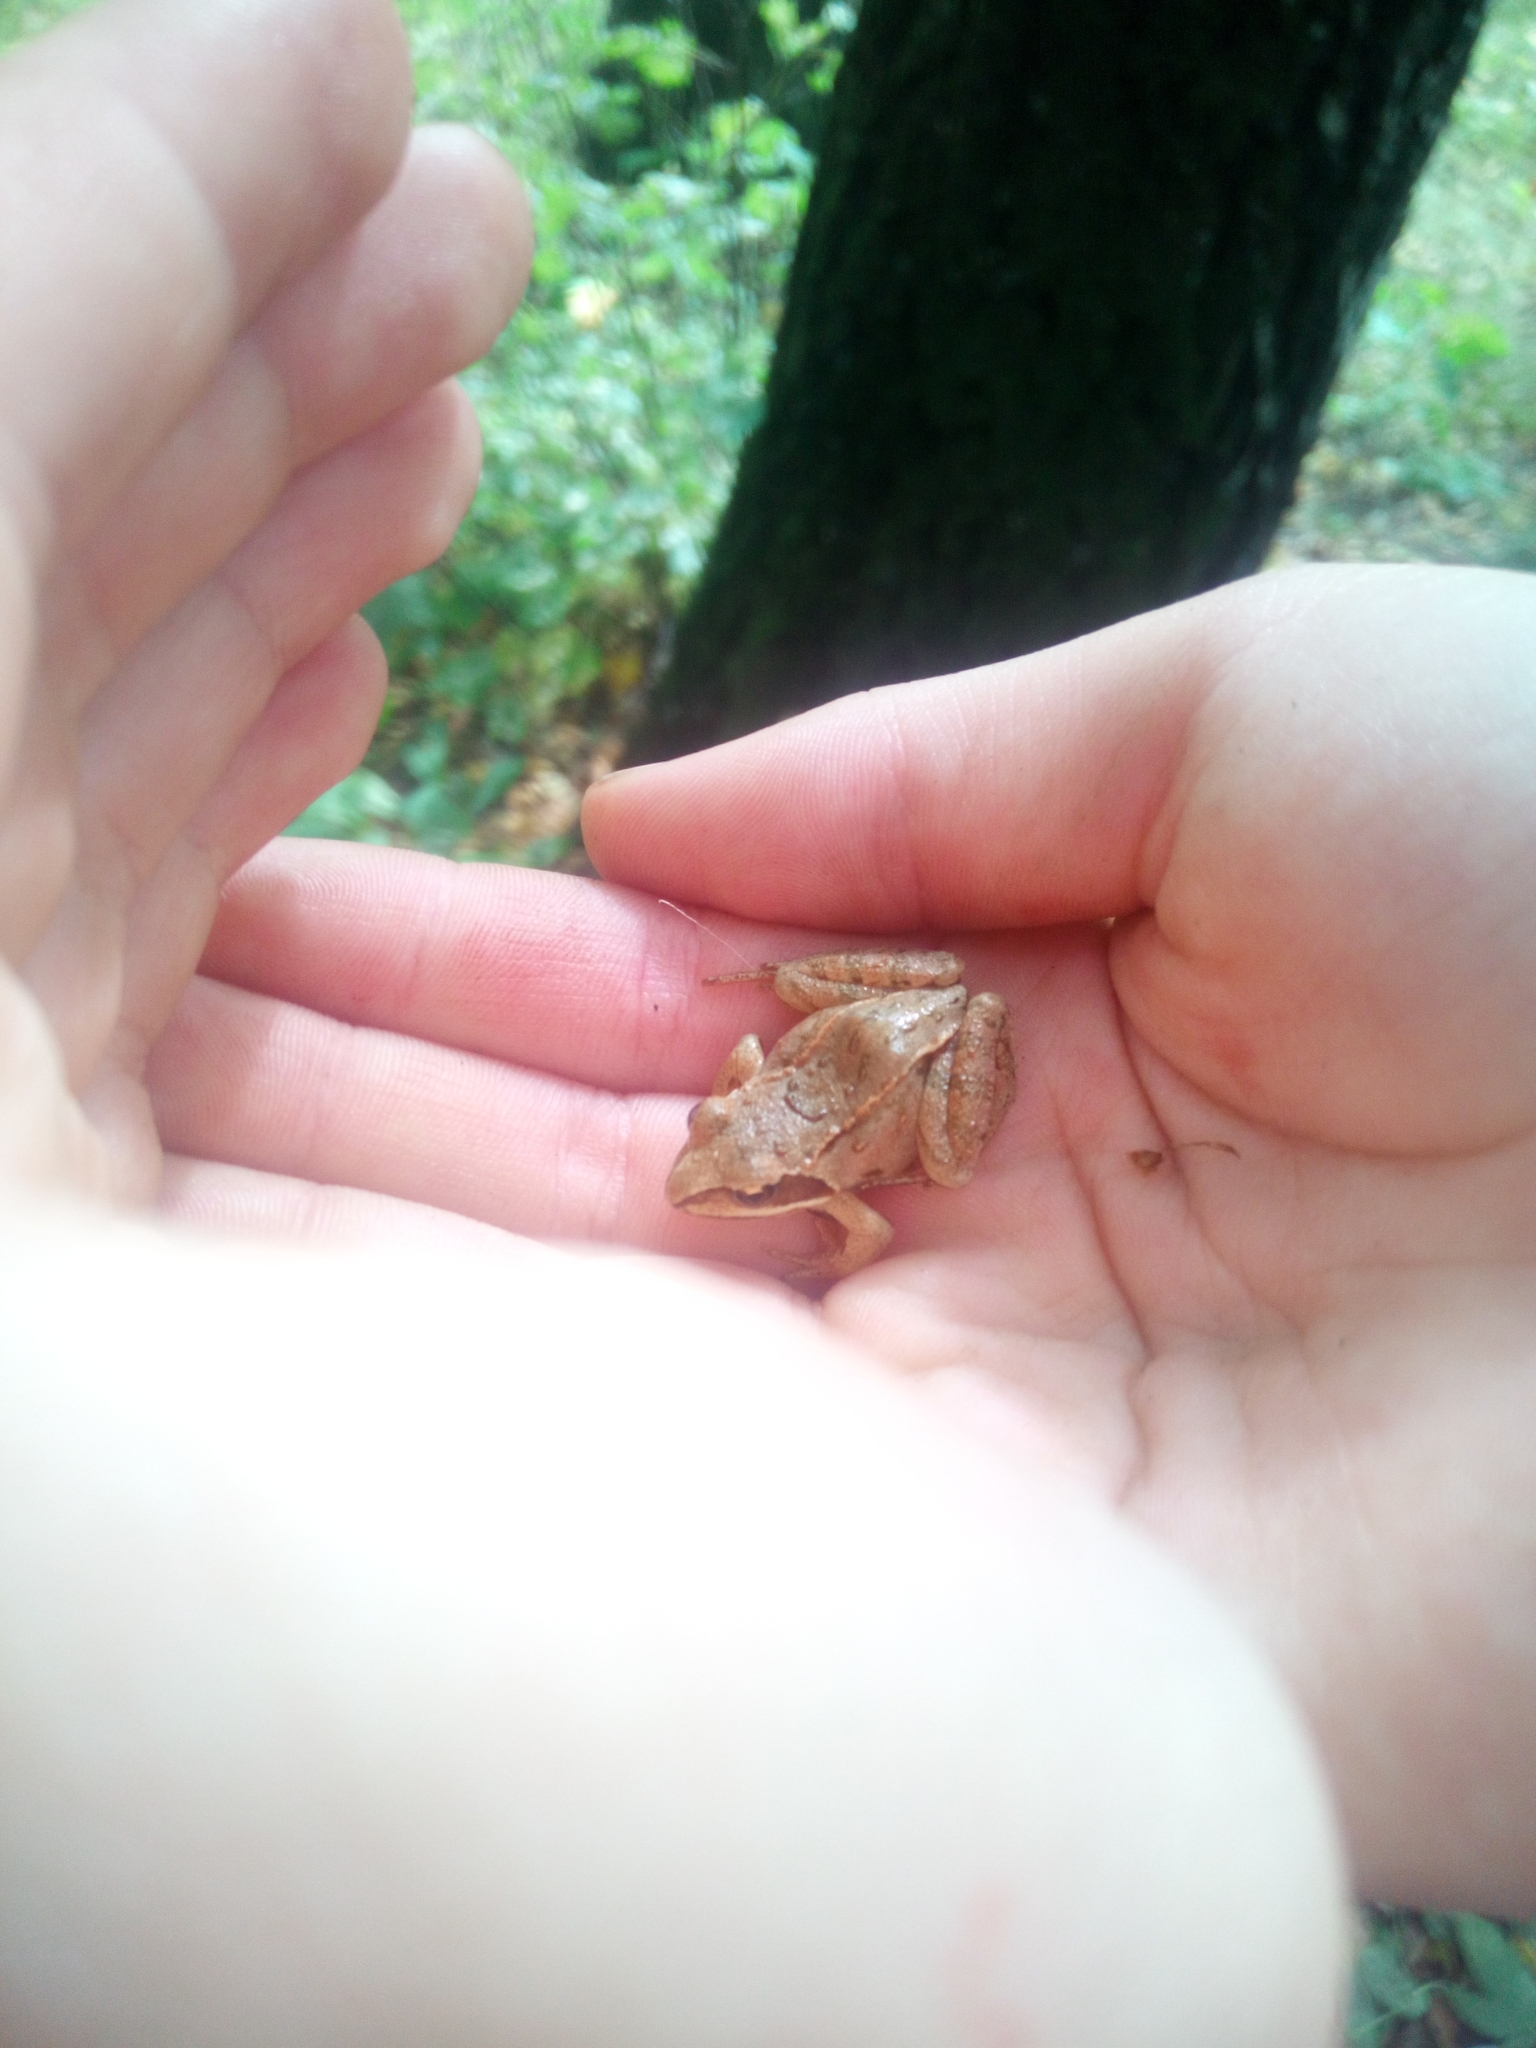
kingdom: Animalia
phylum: Chordata
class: Amphibia
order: Anura
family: Ranidae
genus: Rana
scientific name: Rana temporaria
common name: Common frog
